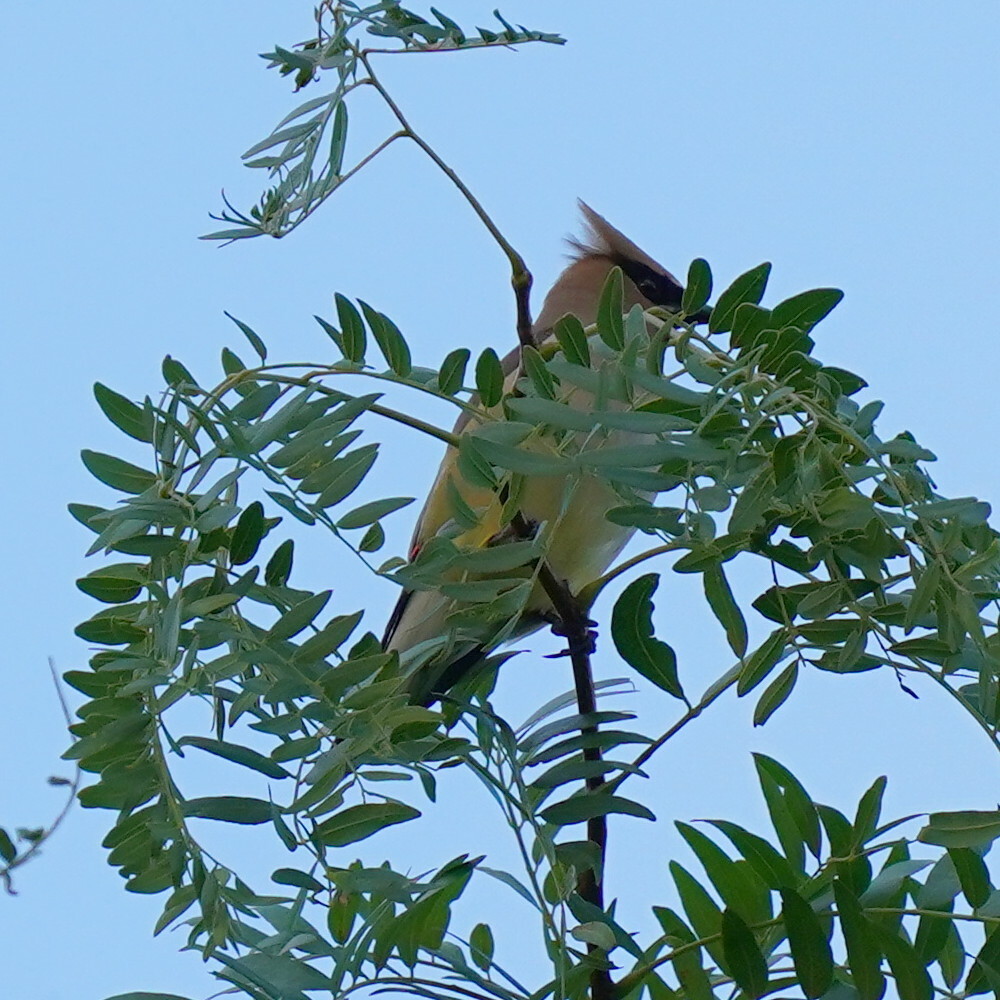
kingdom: Animalia
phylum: Chordata
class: Aves
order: Passeriformes
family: Bombycillidae
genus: Bombycilla
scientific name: Bombycilla cedrorum
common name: Cedar waxwing
